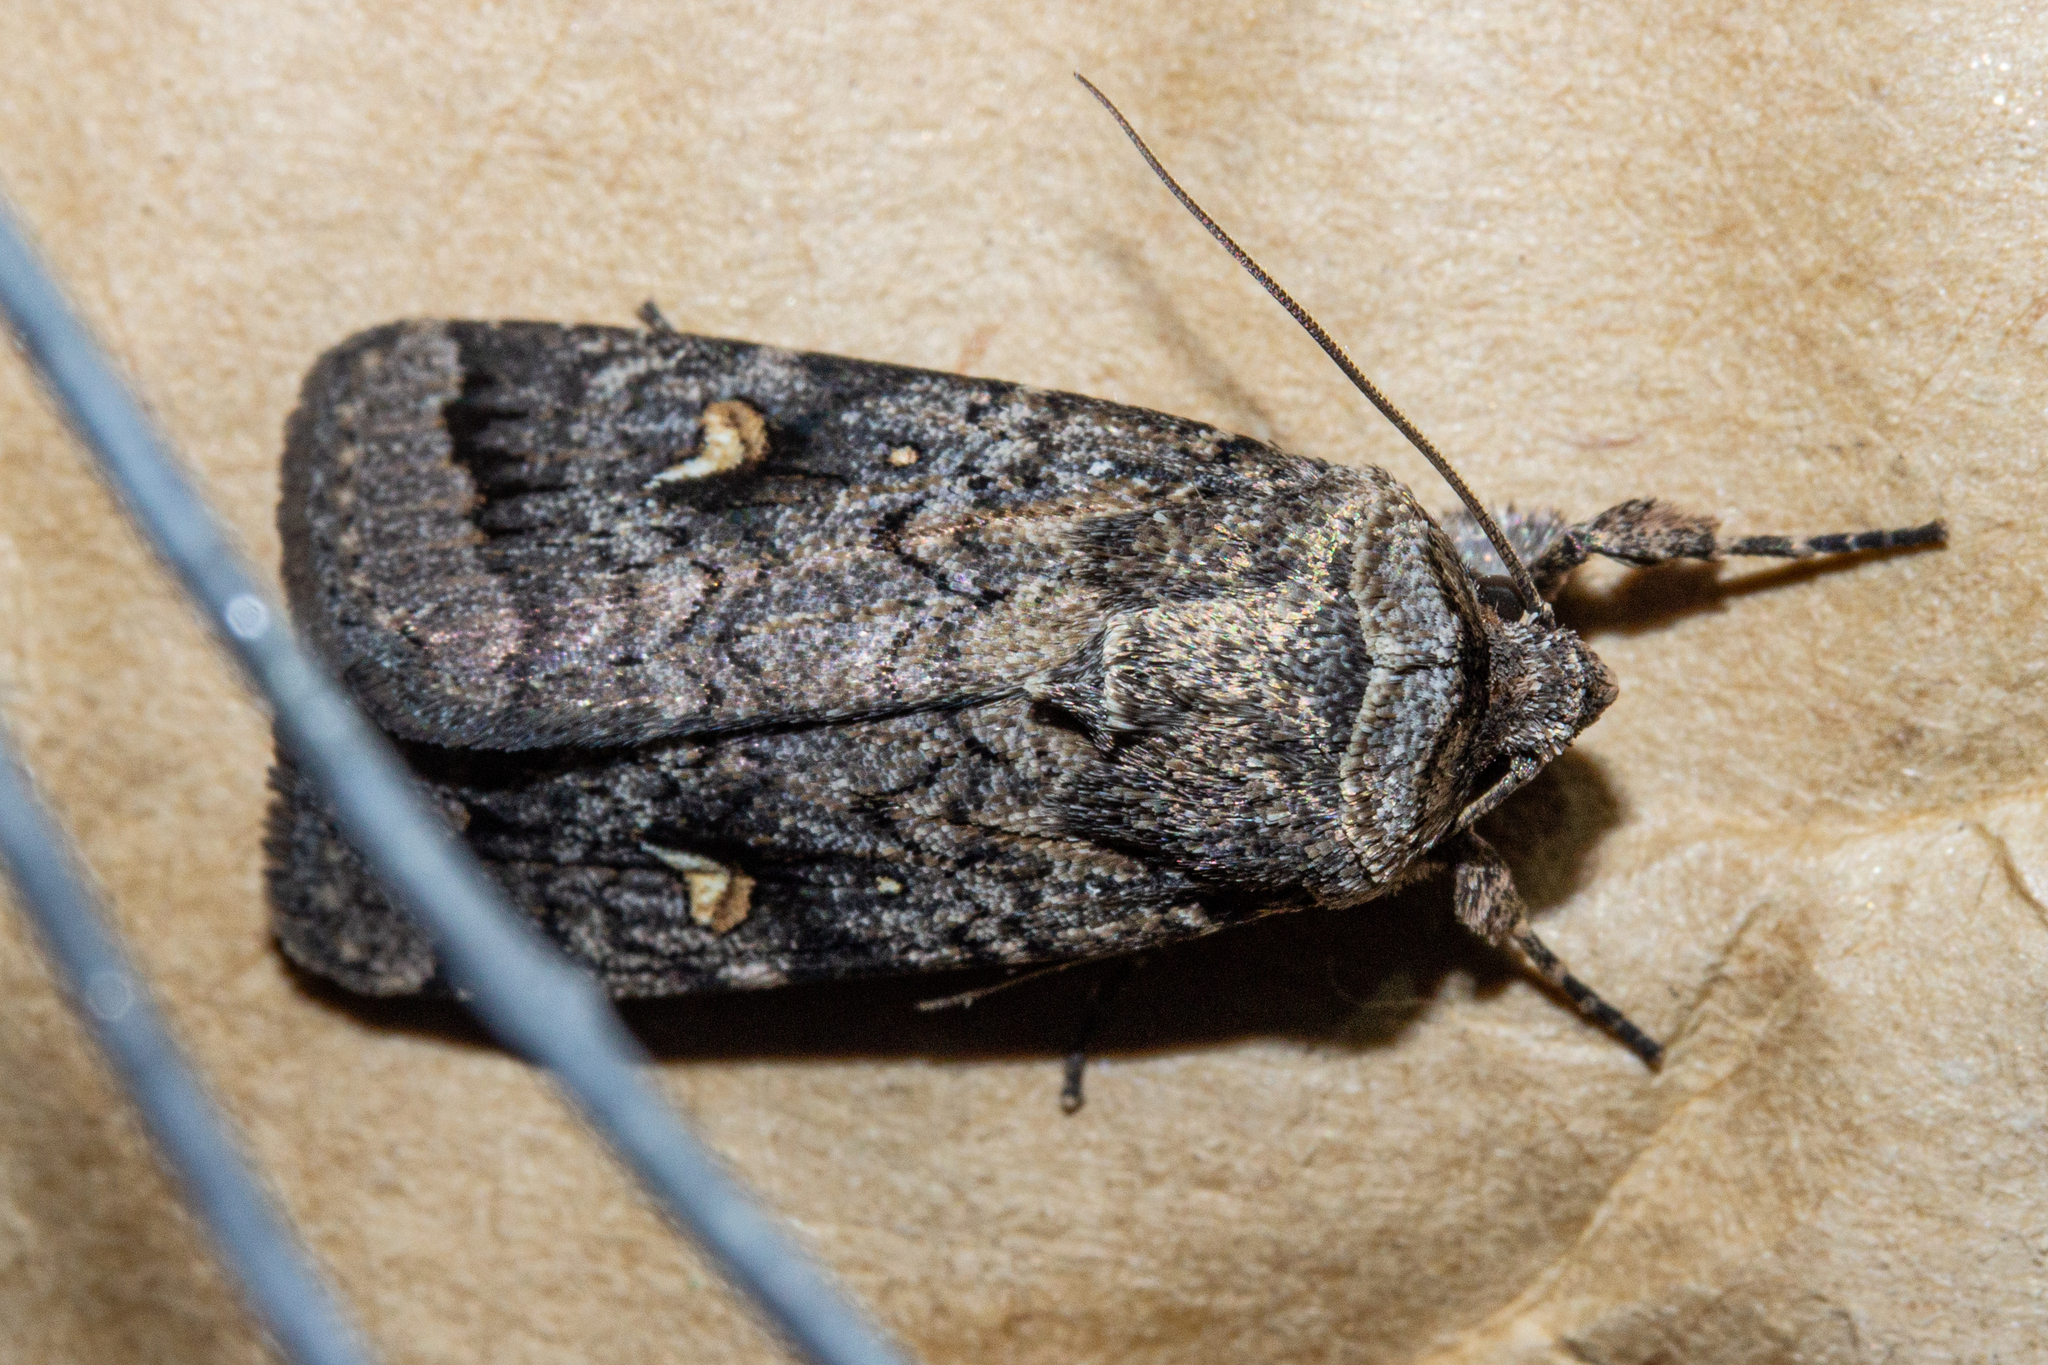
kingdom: Animalia
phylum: Arthropoda
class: Insecta
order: Lepidoptera
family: Noctuidae
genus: Proteuxoa
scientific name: Proteuxoa comma
